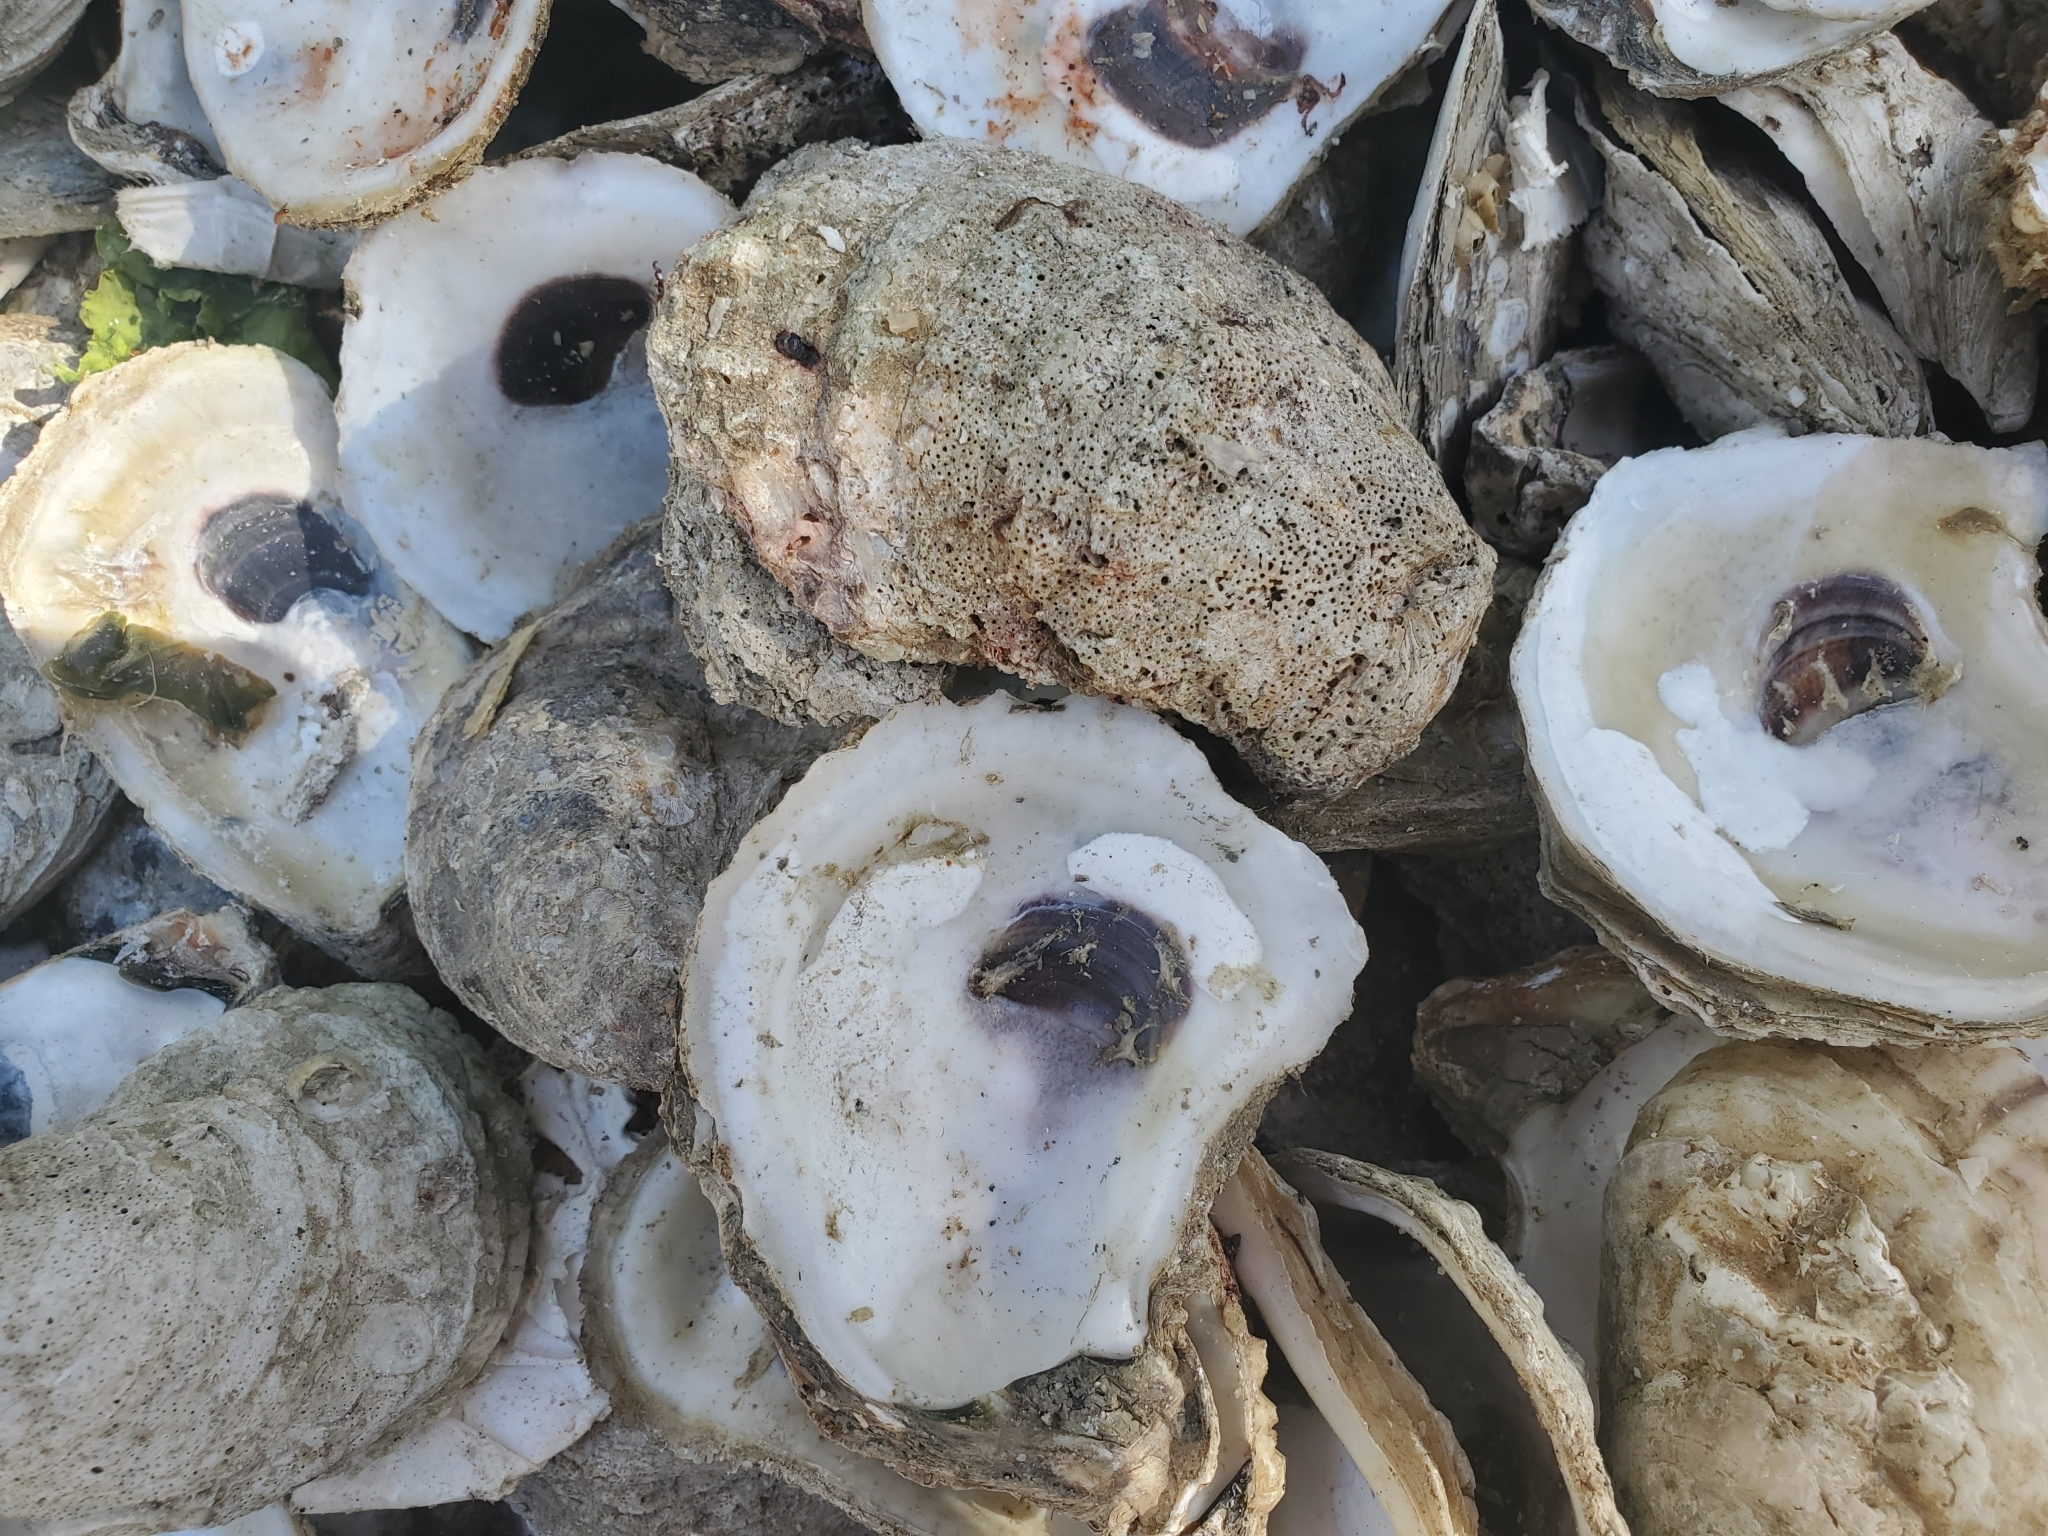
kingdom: Animalia
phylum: Mollusca
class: Bivalvia
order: Ostreida
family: Ostreidae
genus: Crassostrea
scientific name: Crassostrea virginica
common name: American oyster
